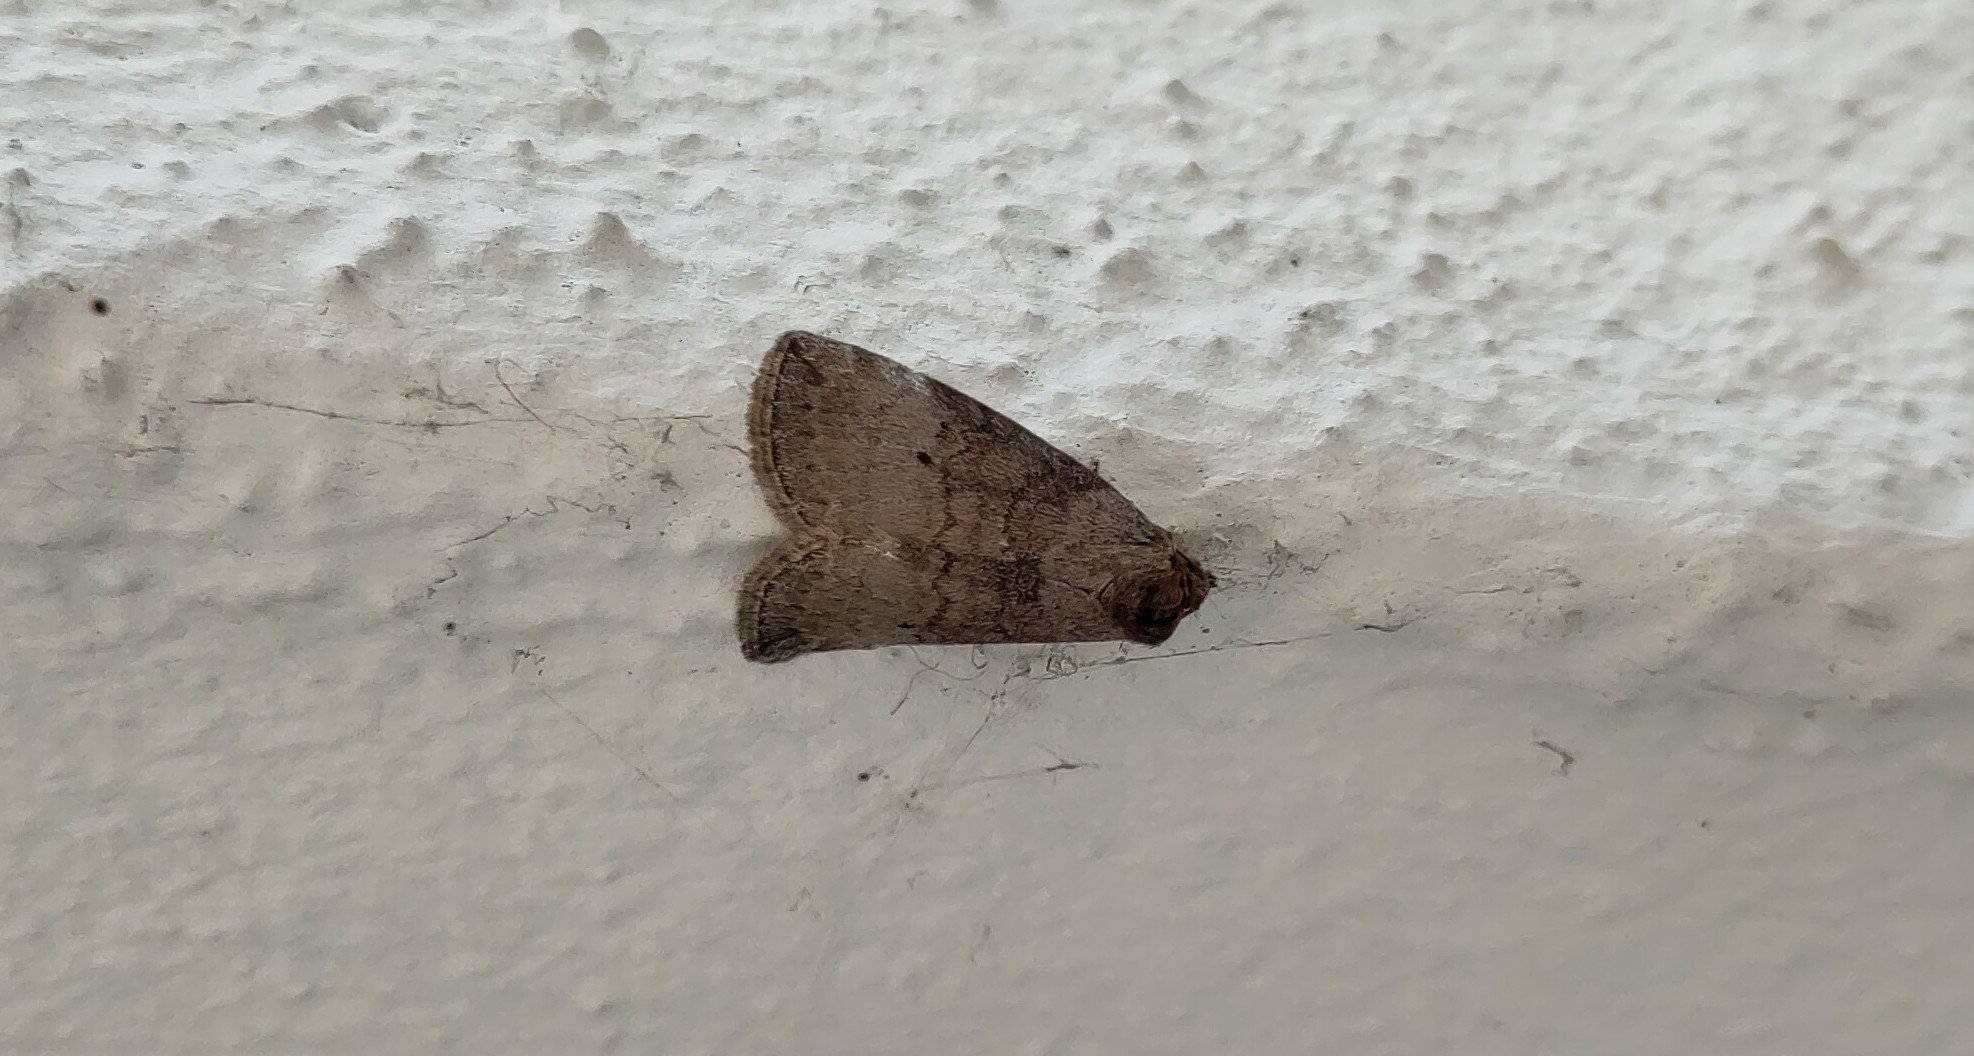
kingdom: Animalia
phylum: Arthropoda
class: Insecta
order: Lepidoptera
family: Drepanidae
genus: Ochropacha
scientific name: Ochropacha duplaris
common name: Common lutestring
